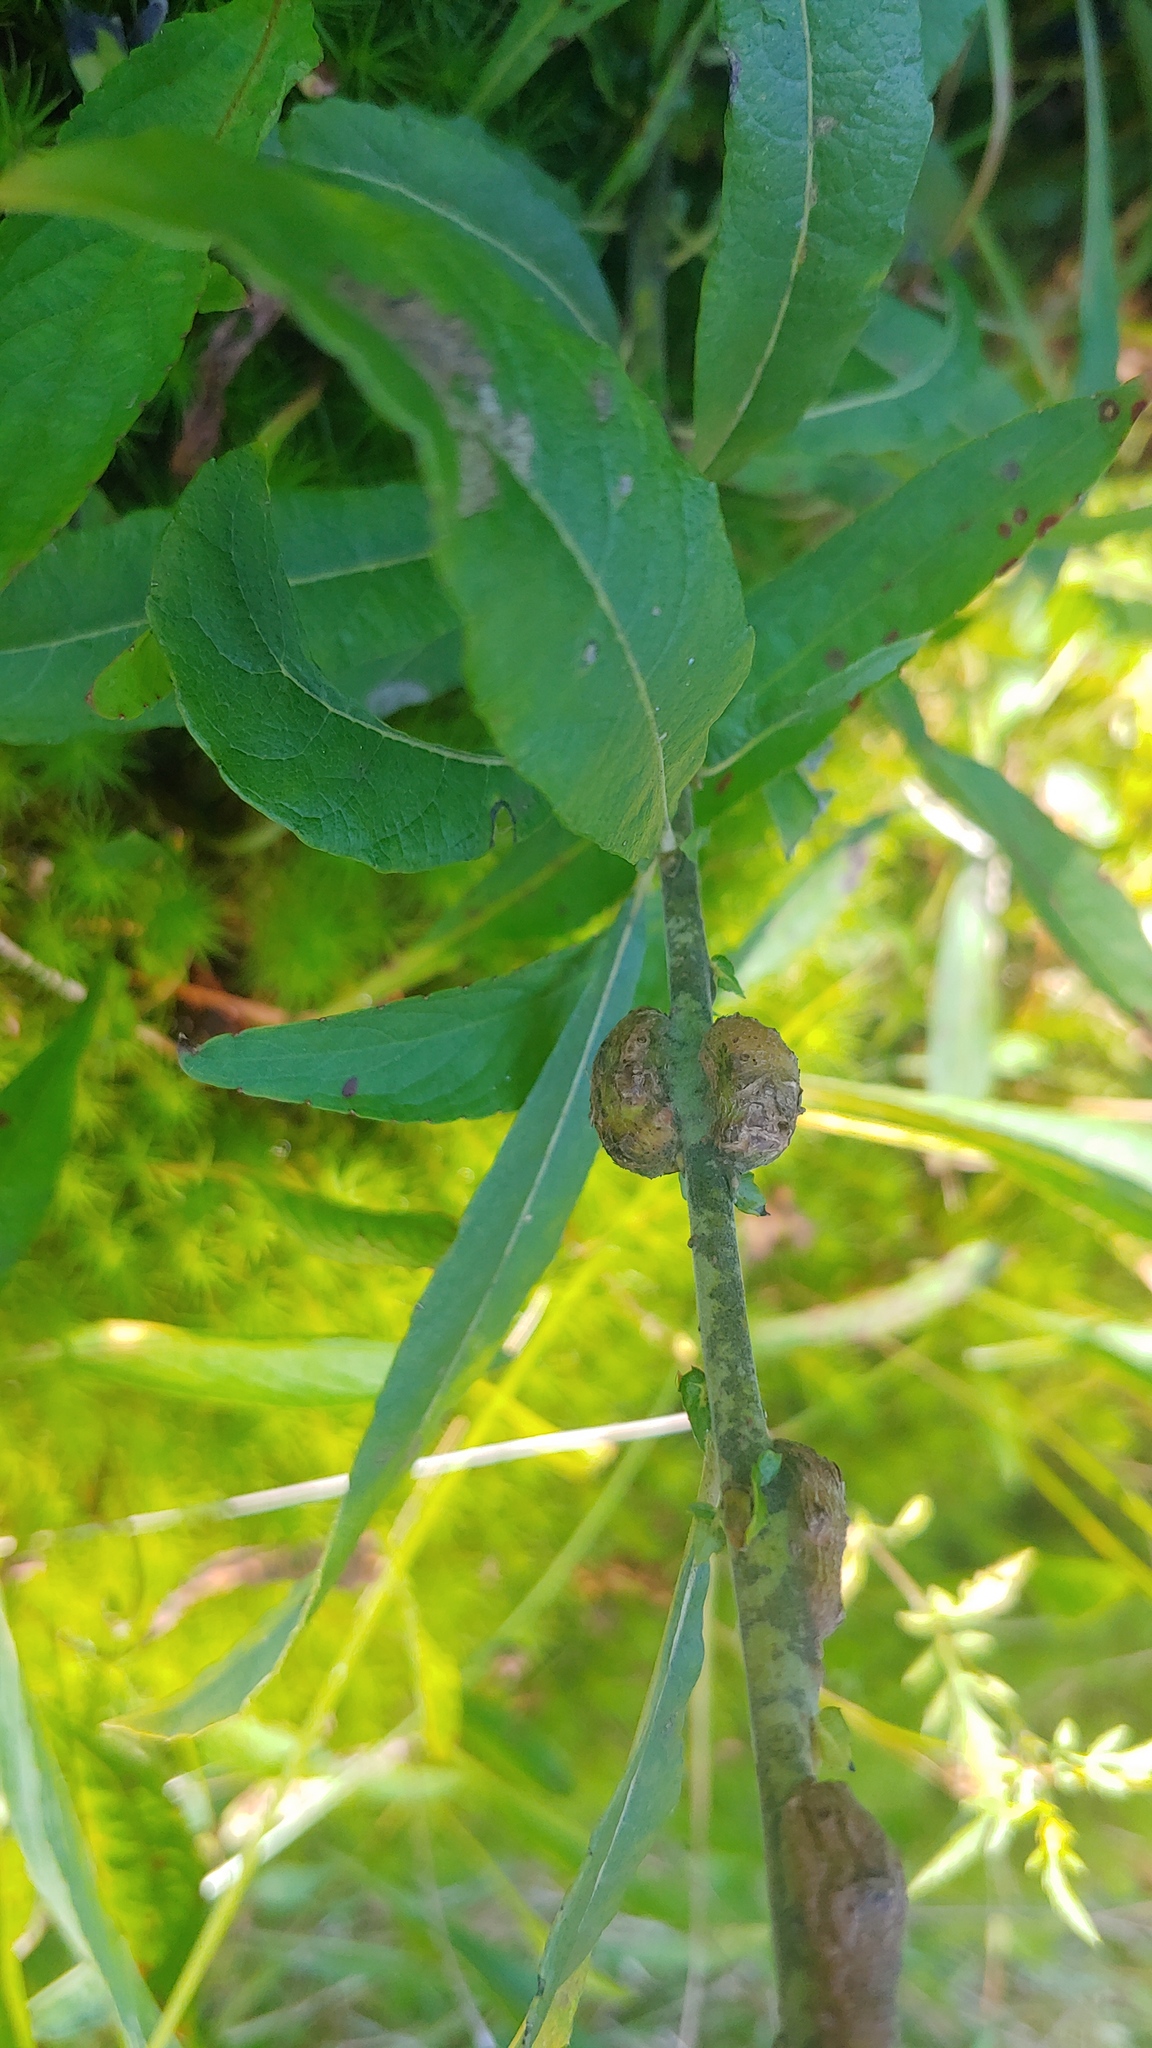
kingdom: Animalia
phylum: Arthropoda
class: Insecta
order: Hymenoptera
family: Tenthredinidae
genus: Euura
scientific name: Euura
